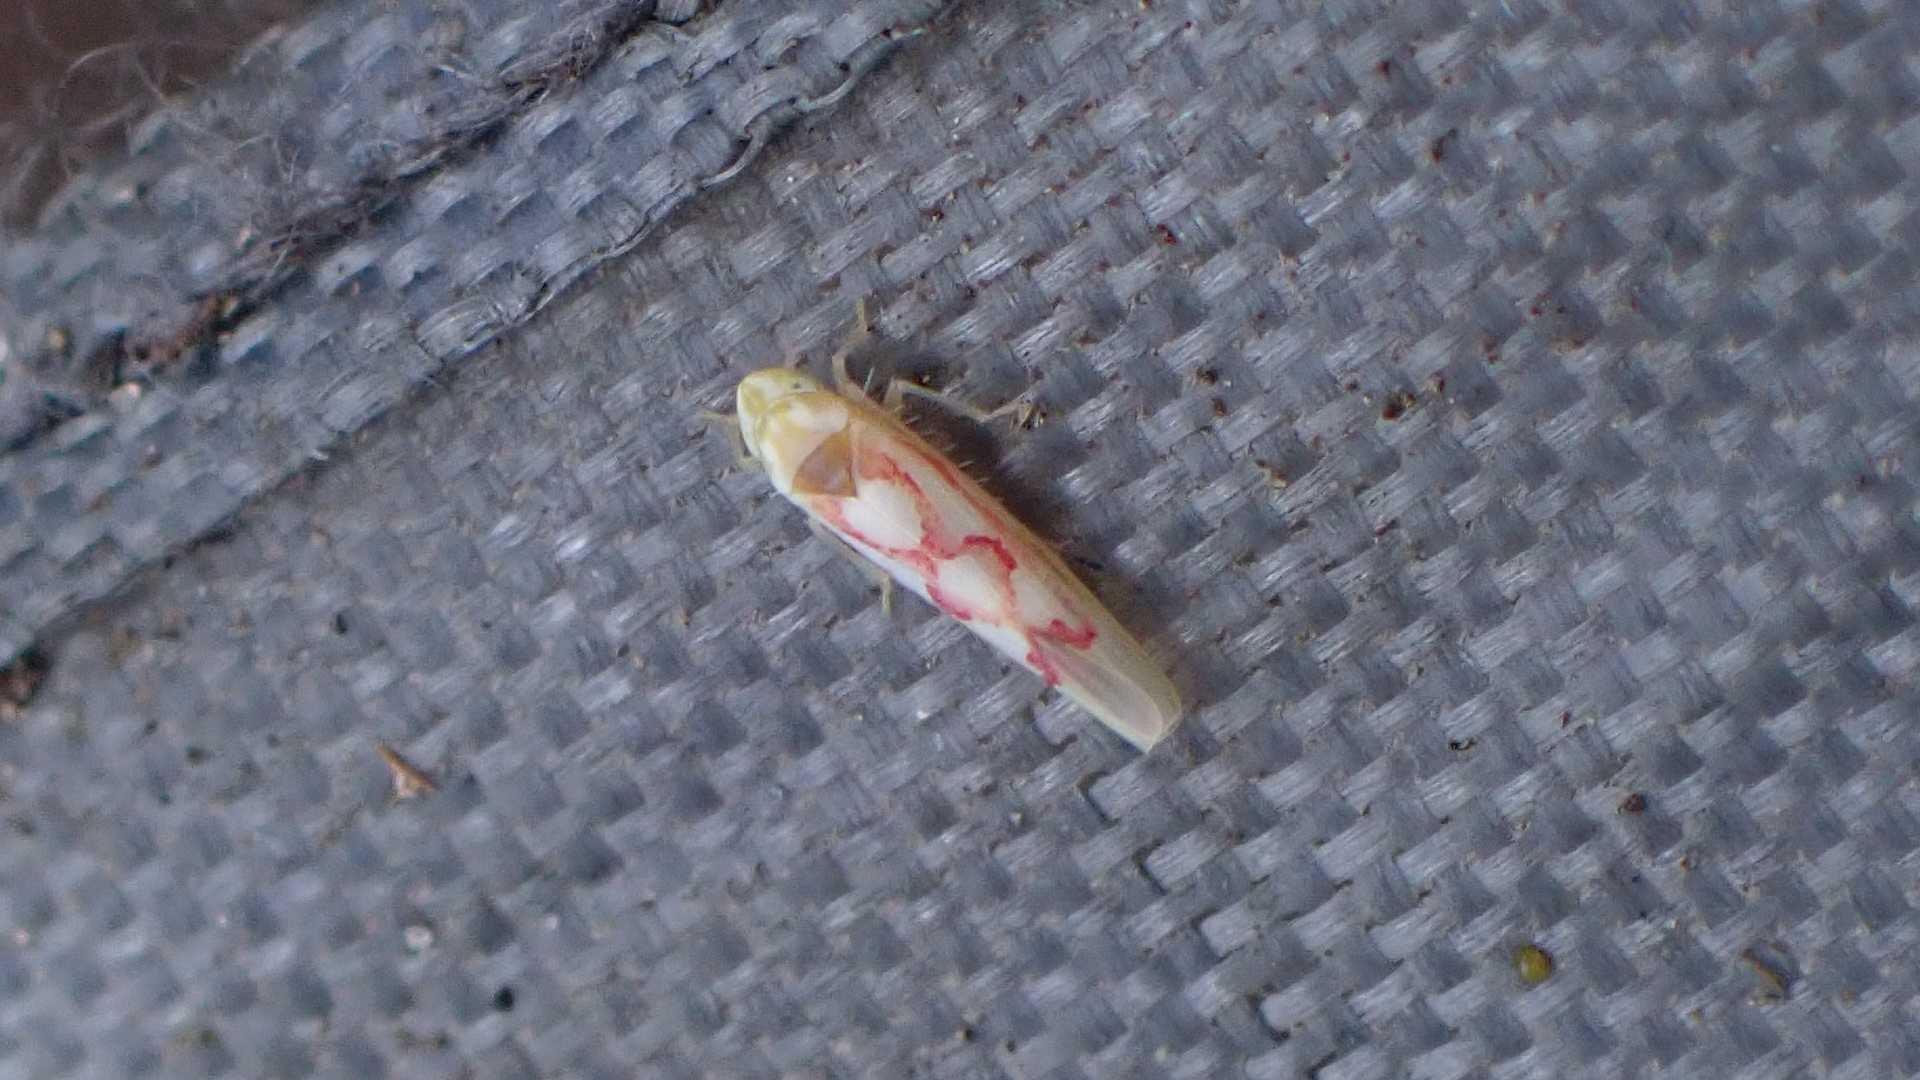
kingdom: Animalia
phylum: Arthropoda
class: Insecta
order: Hemiptera
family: Cicadellidae
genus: Zygina
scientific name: Zygina flammigera
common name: Leafhopper
